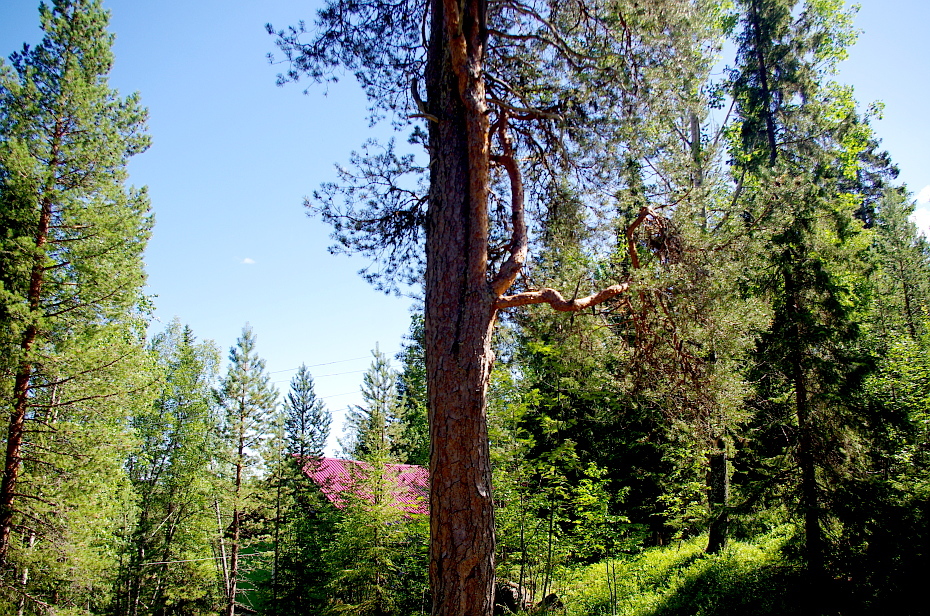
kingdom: Plantae
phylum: Tracheophyta
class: Pinopsida
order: Pinales
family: Pinaceae
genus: Pinus
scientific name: Pinus sylvestris
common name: Scots pine
